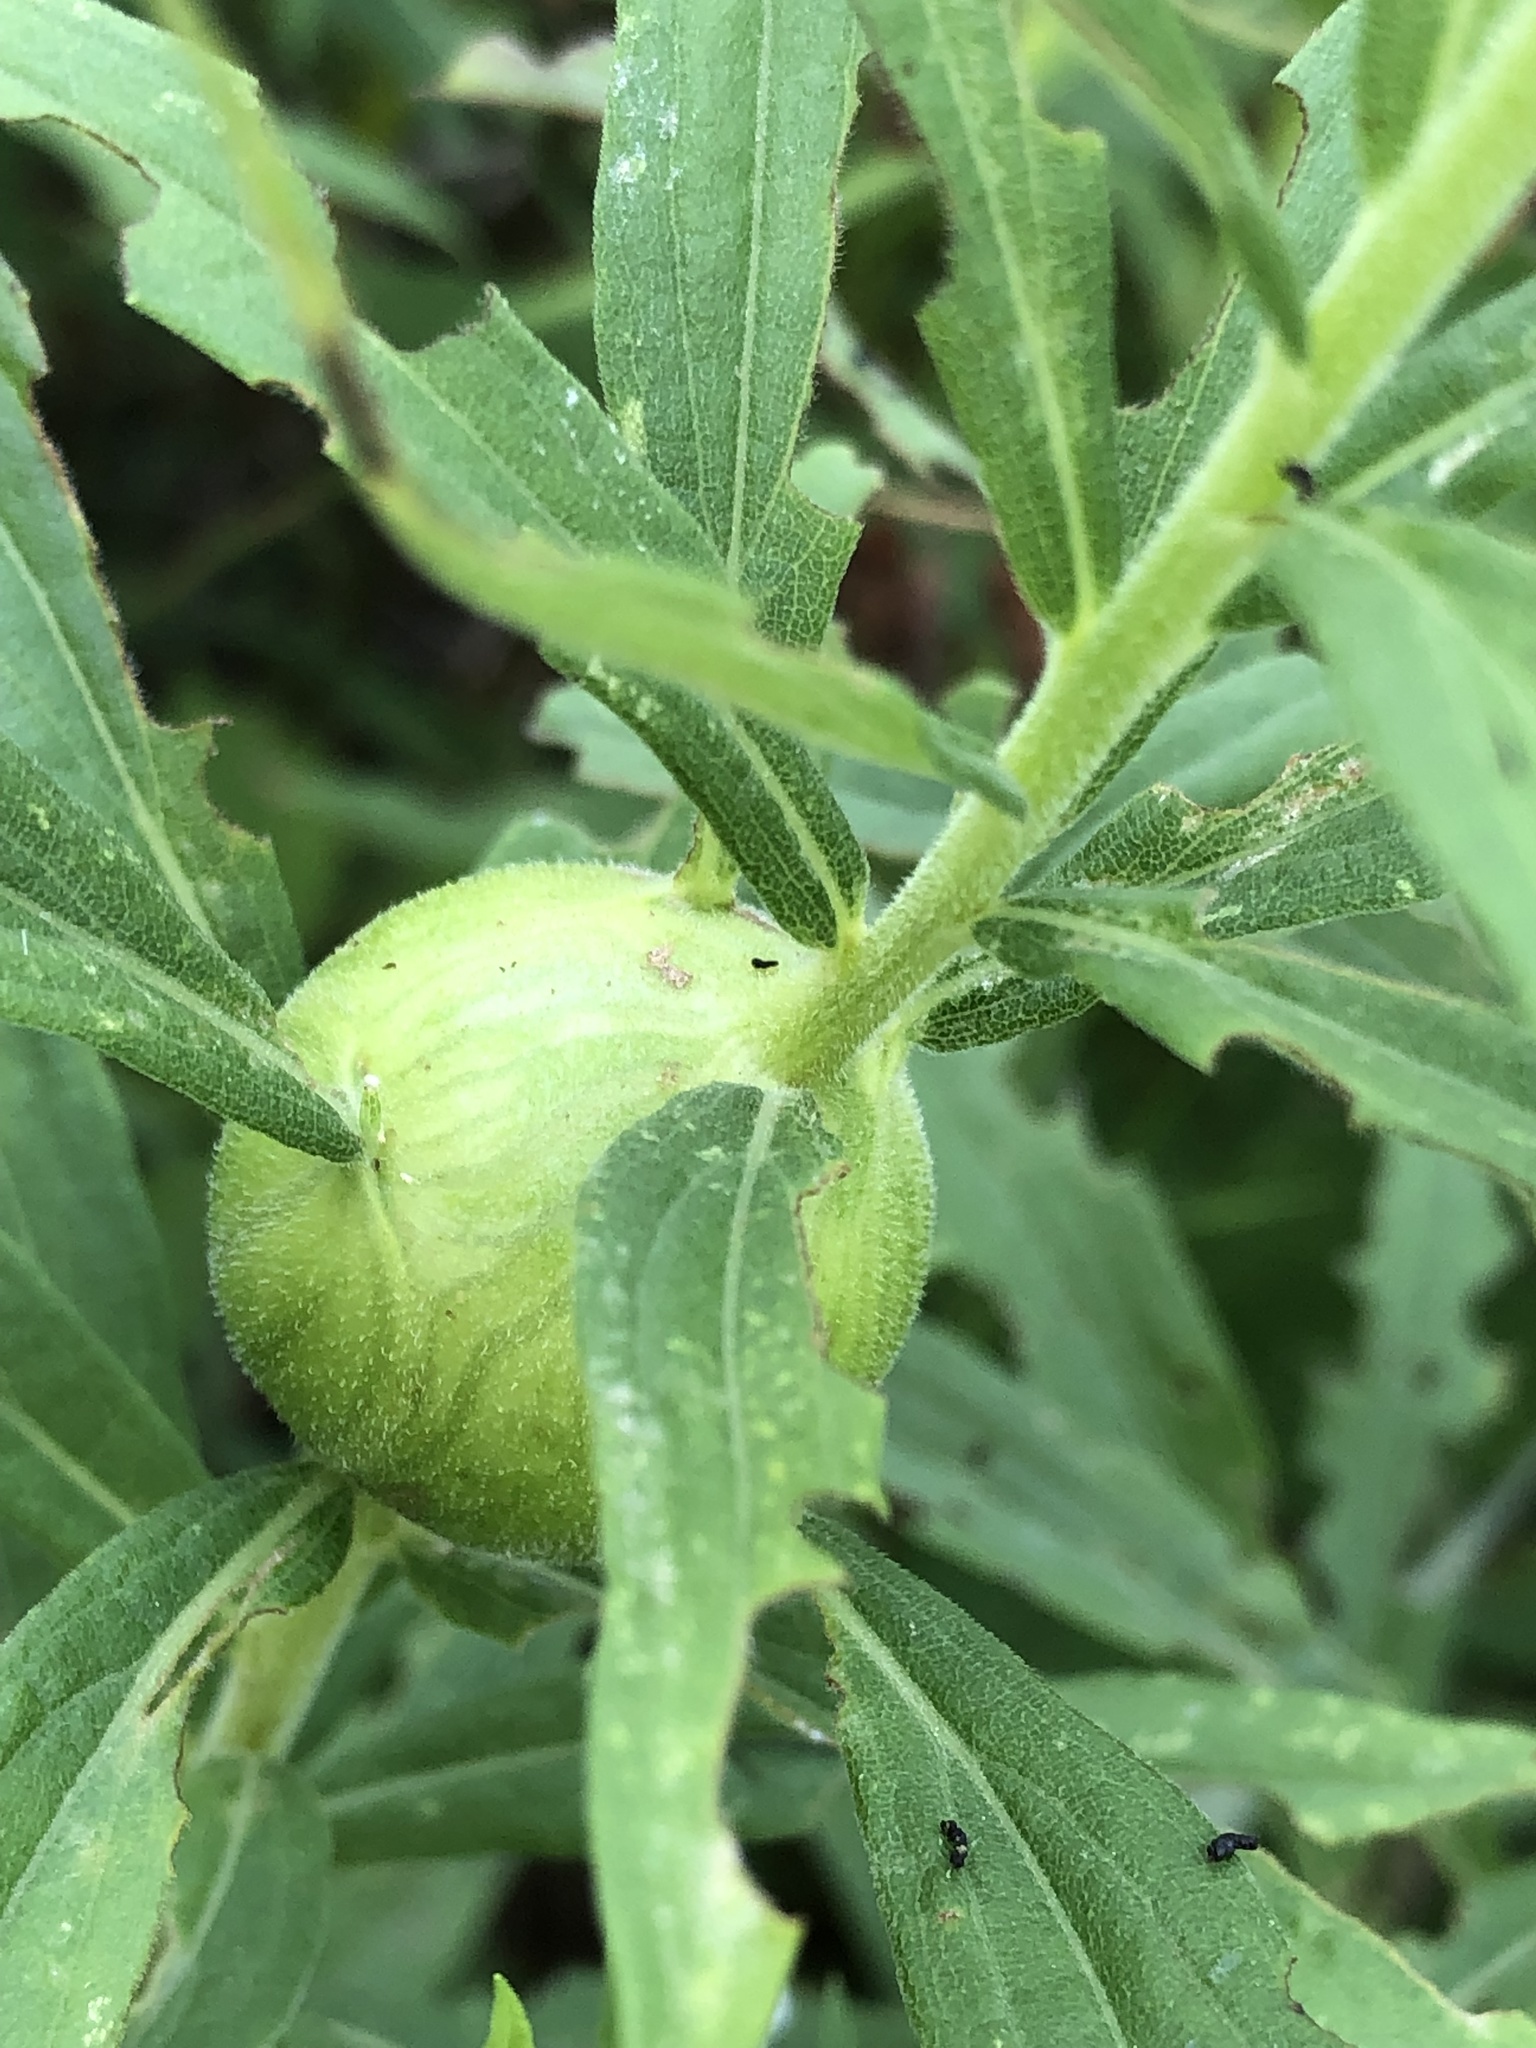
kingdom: Animalia
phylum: Arthropoda
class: Insecta
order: Diptera
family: Tephritidae
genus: Eurosta
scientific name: Eurosta solidaginis
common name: Goldenrod gall fly
